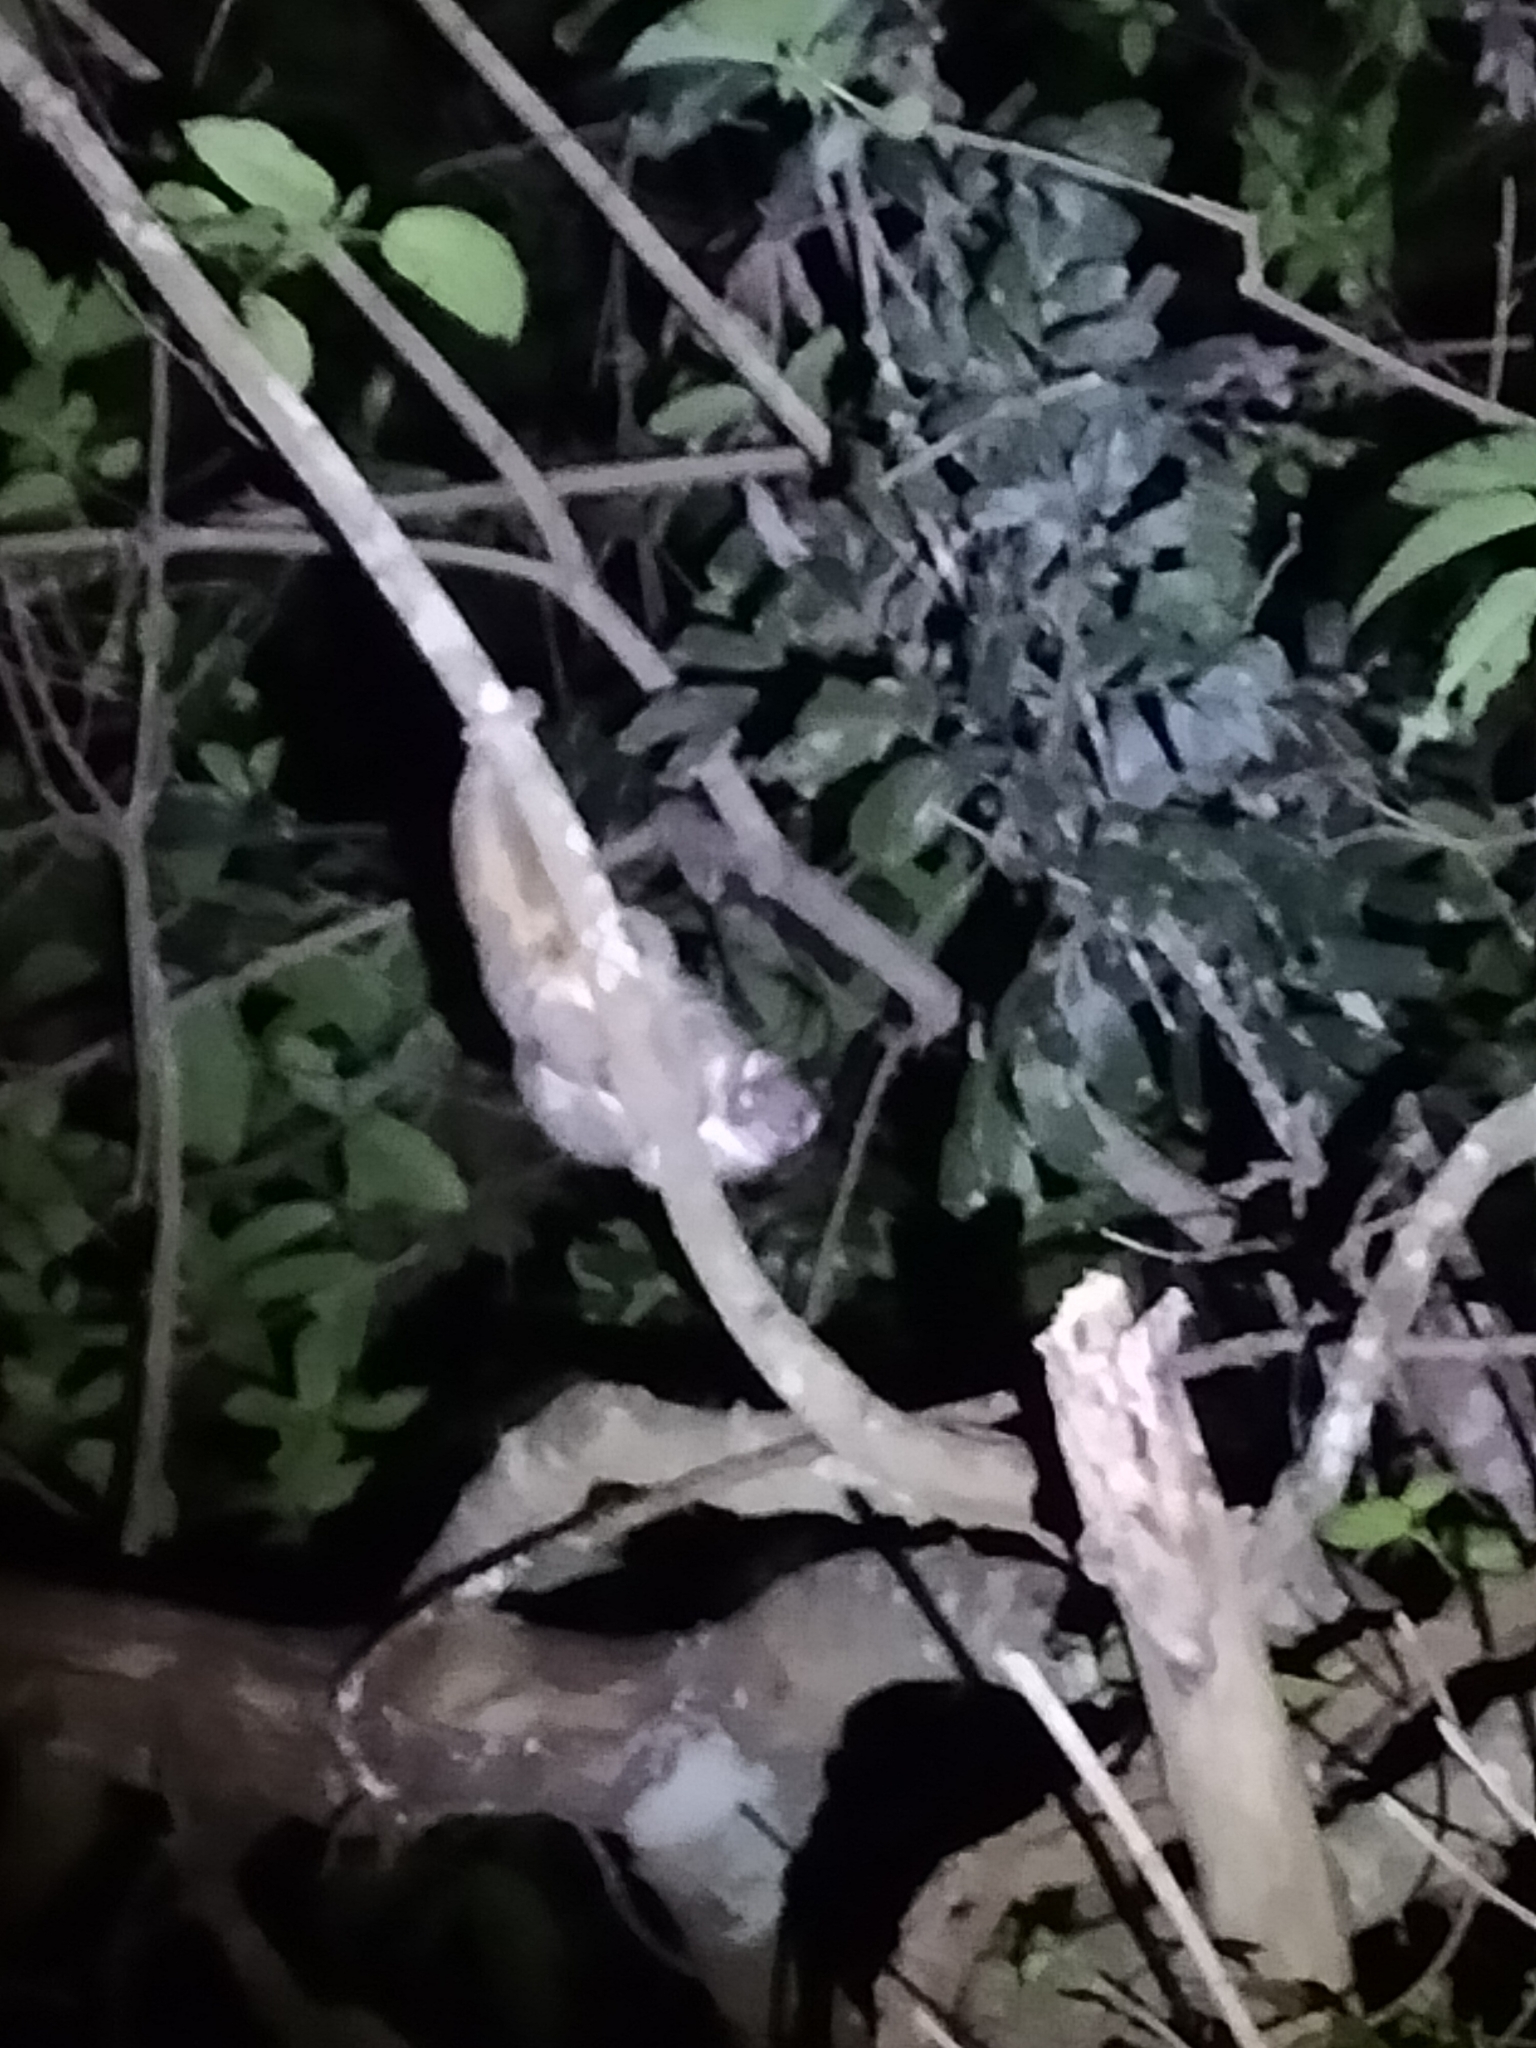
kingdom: Animalia
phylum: Chordata
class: Mammalia
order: Diprotodontia
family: Pseudocheiridae
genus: Pseudochirops
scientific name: Pseudochirops archeri
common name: Green ringtail
